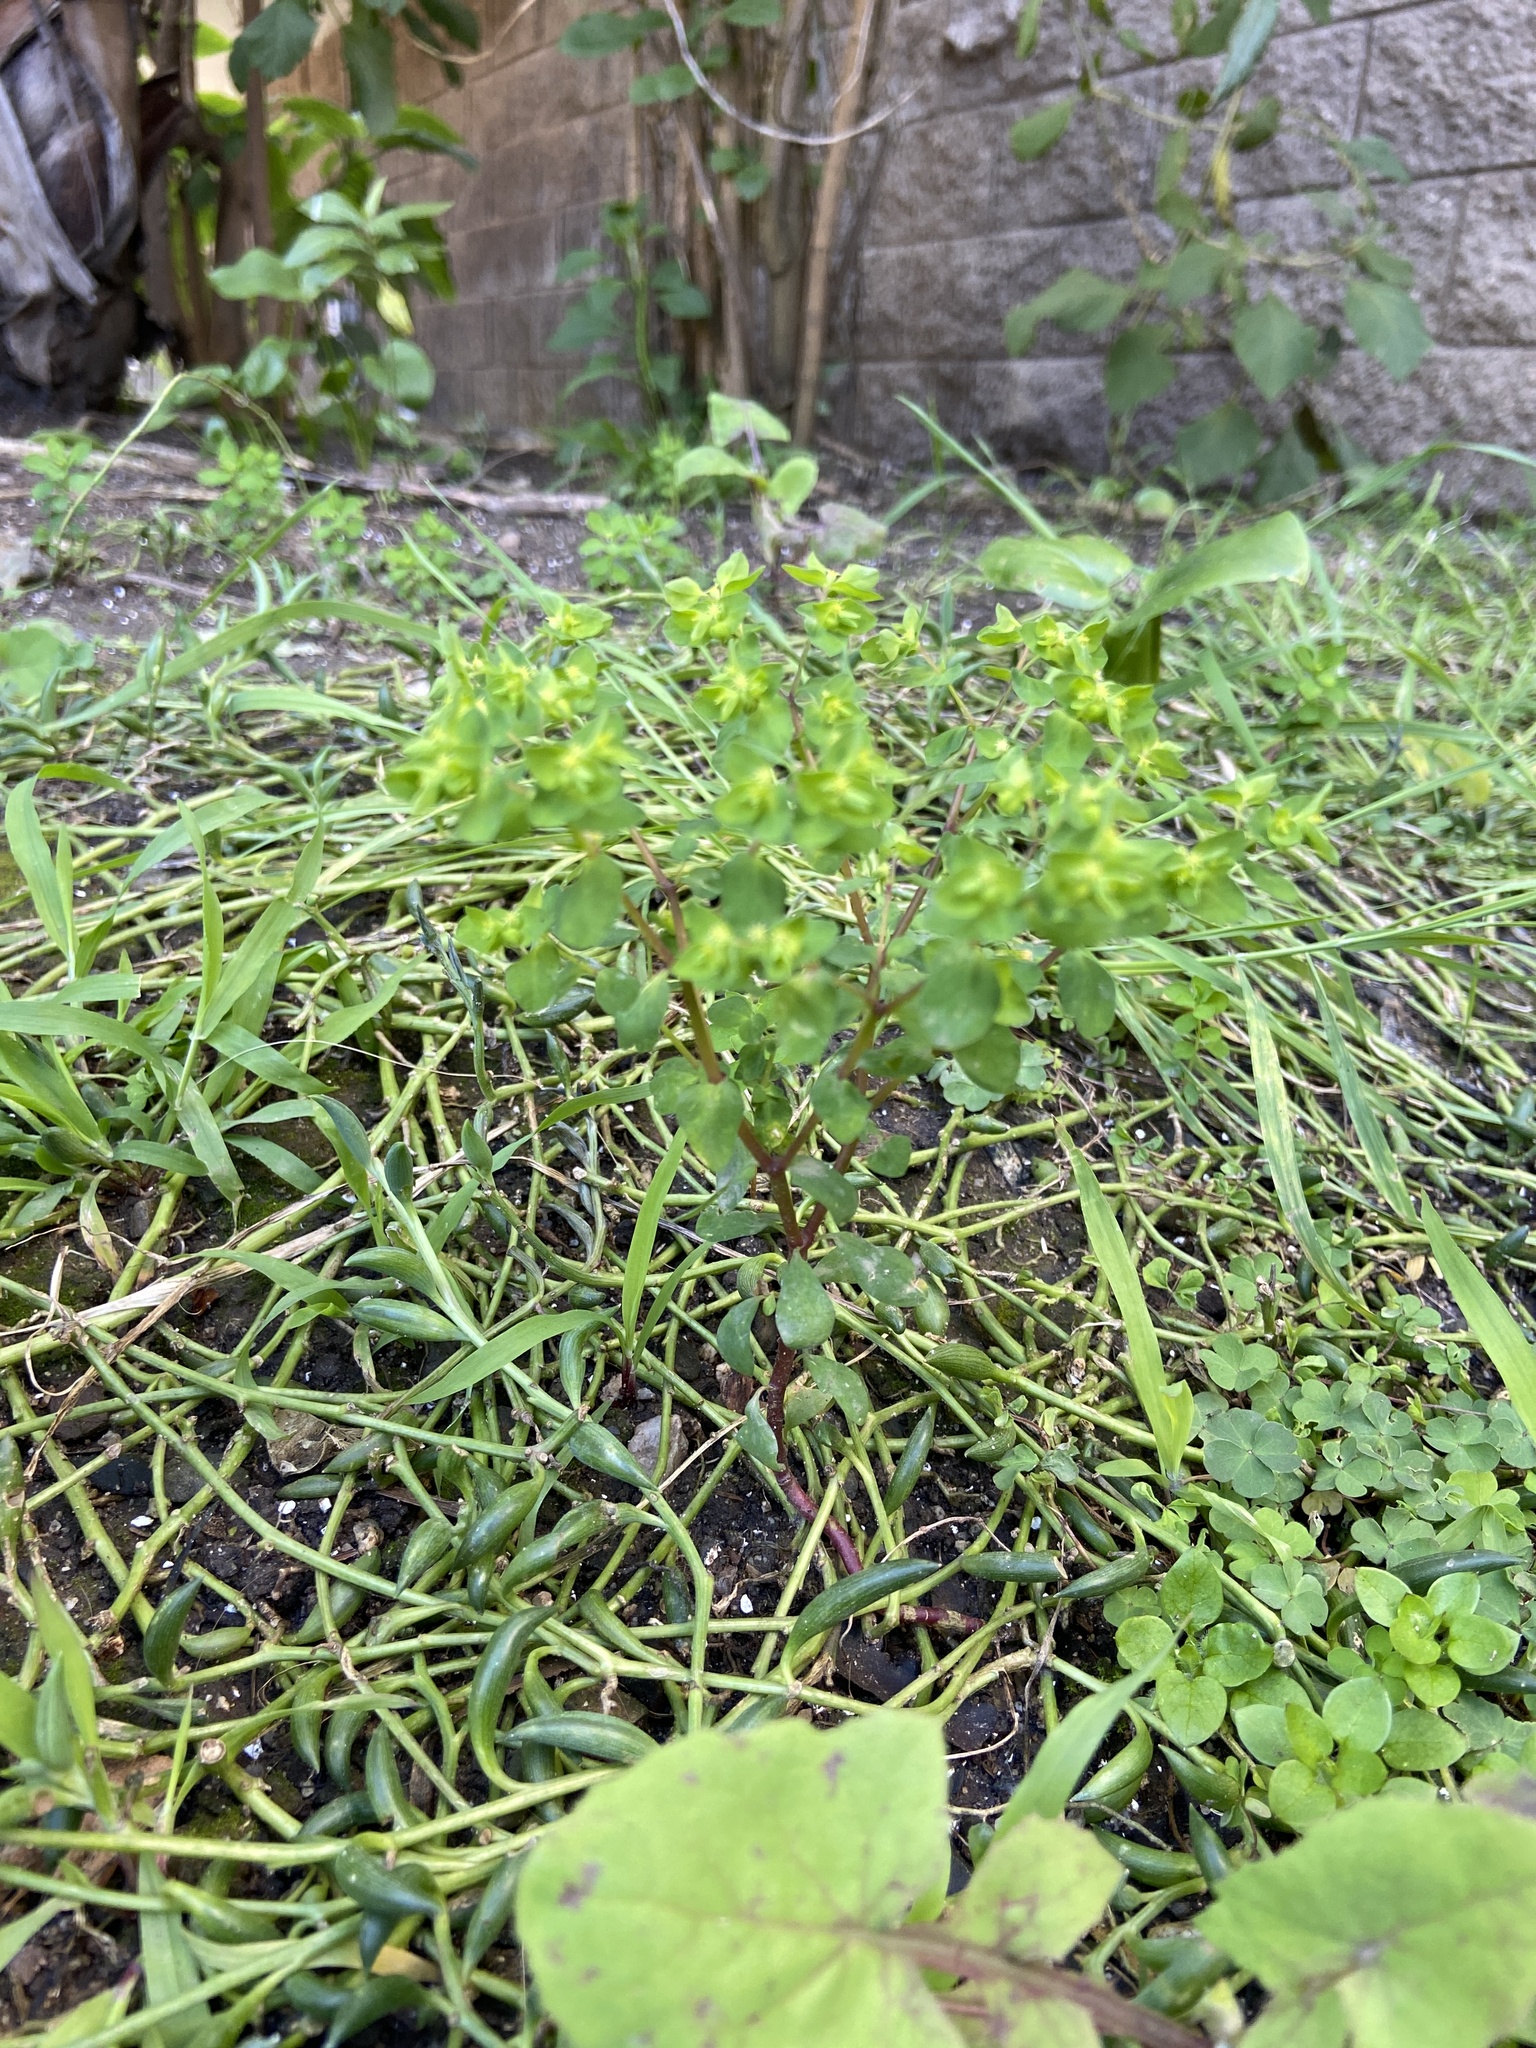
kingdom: Plantae
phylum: Tracheophyta
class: Magnoliopsida
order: Malpighiales
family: Euphorbiaceae
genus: Euphorbia
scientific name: Euphorbia peplus
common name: Petty spurge
